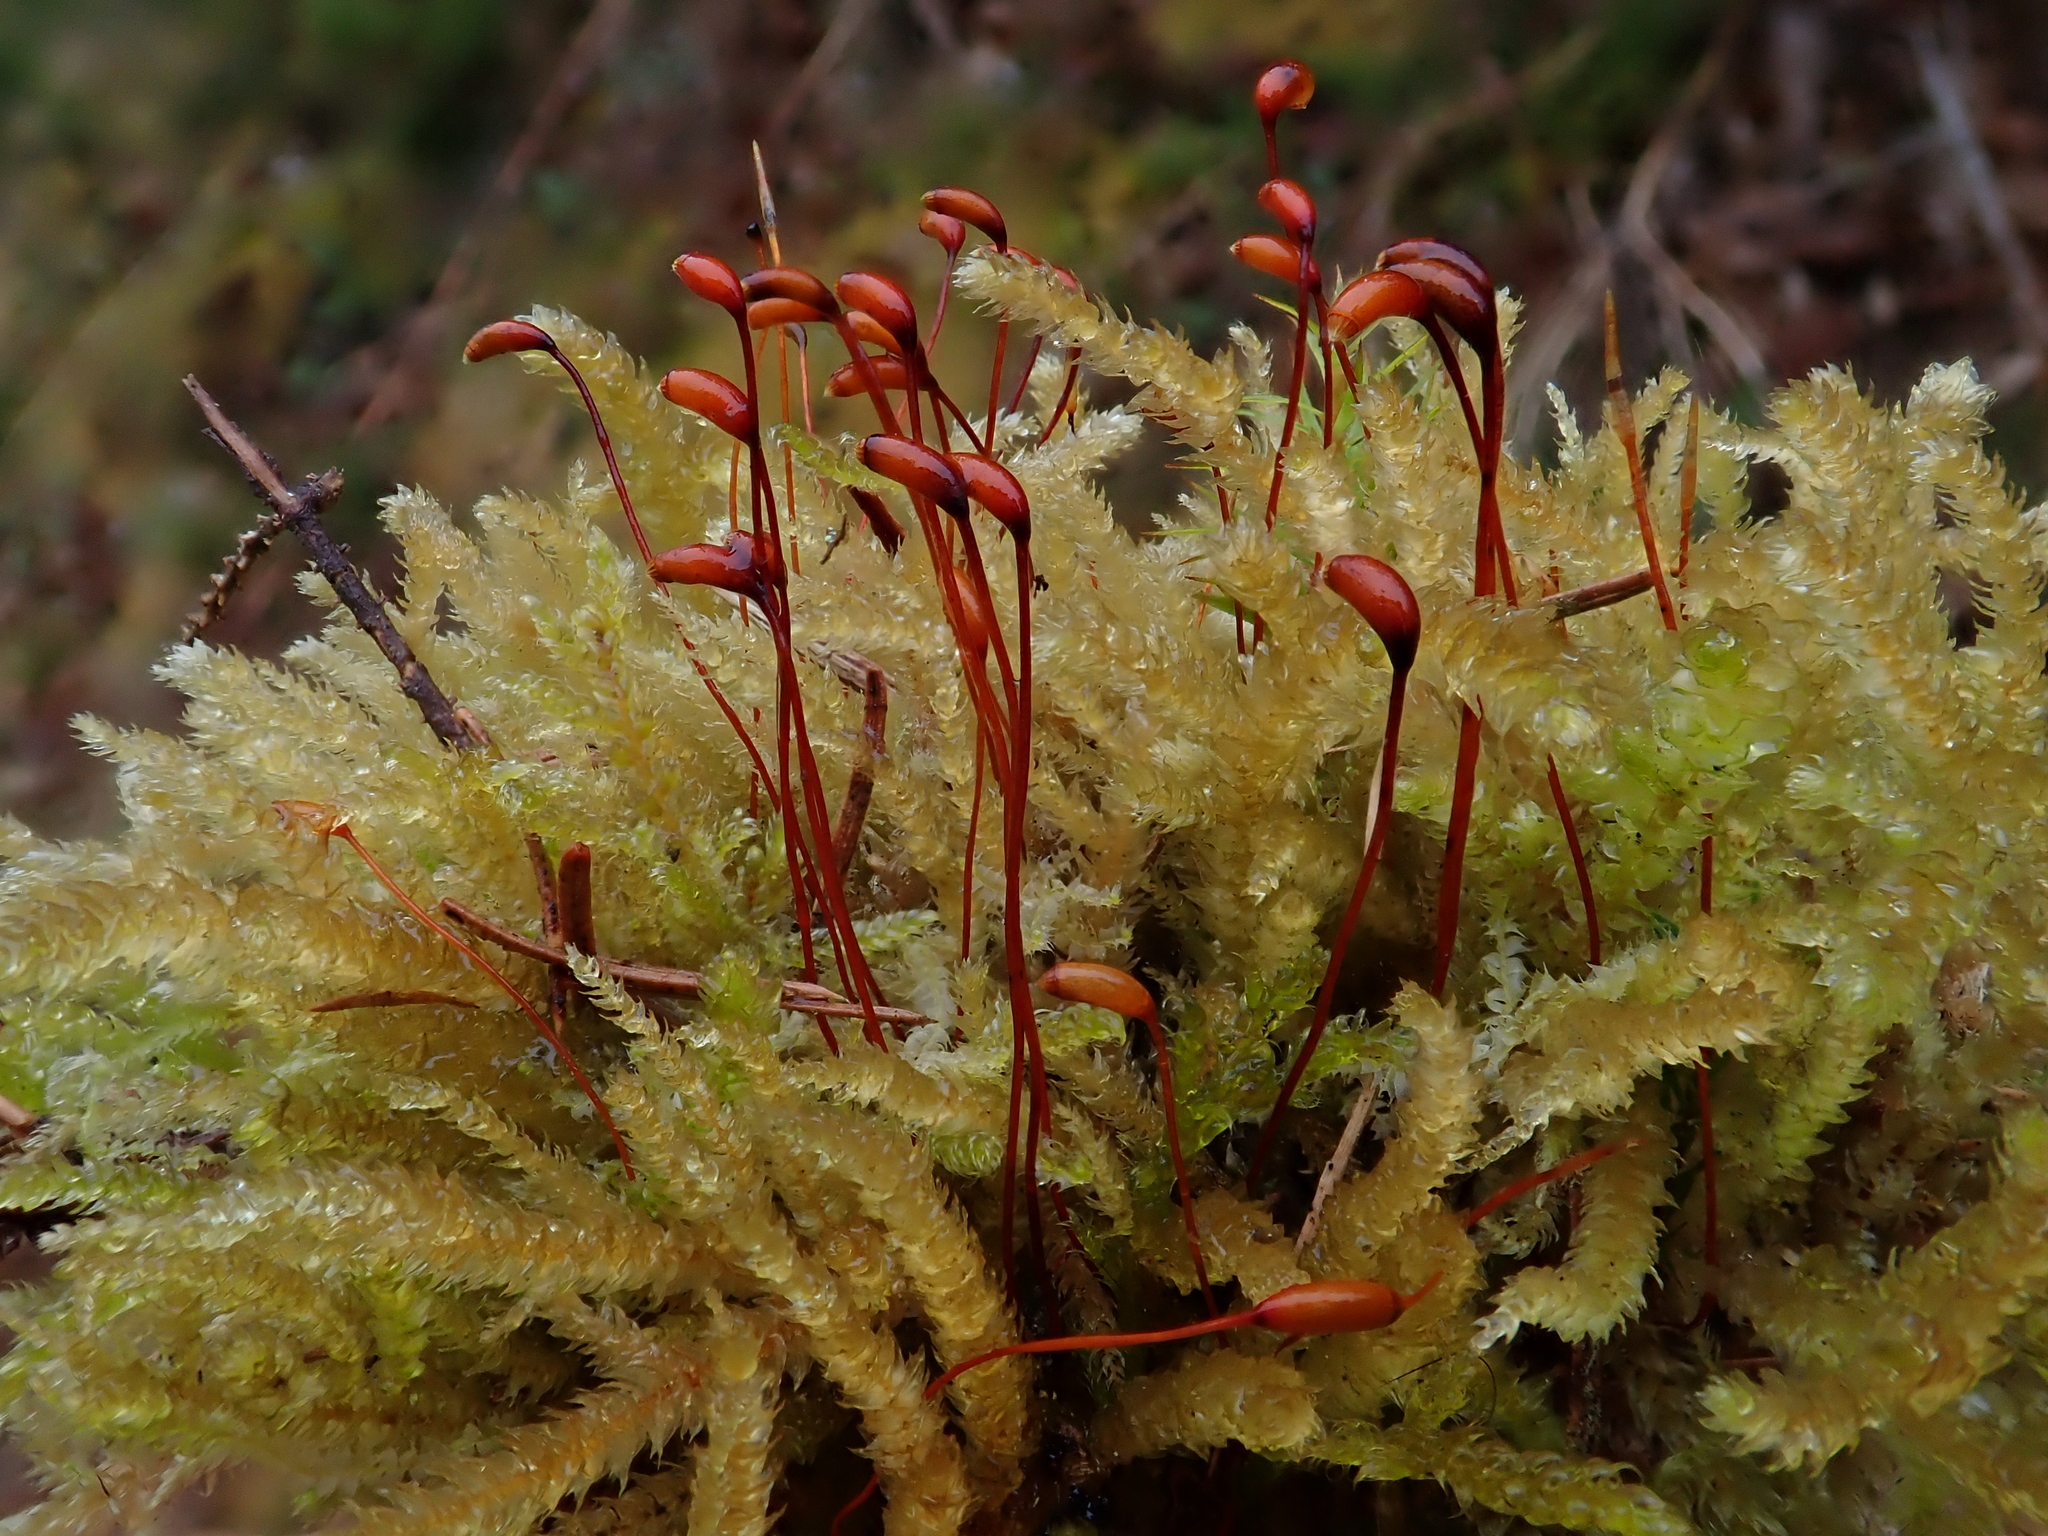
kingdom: Plantae
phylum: Bryophyta
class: Bryopsida
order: Hypnales
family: Brachytheciaceae
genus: Eurhynchium
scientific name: Eurhynchium angustirete
